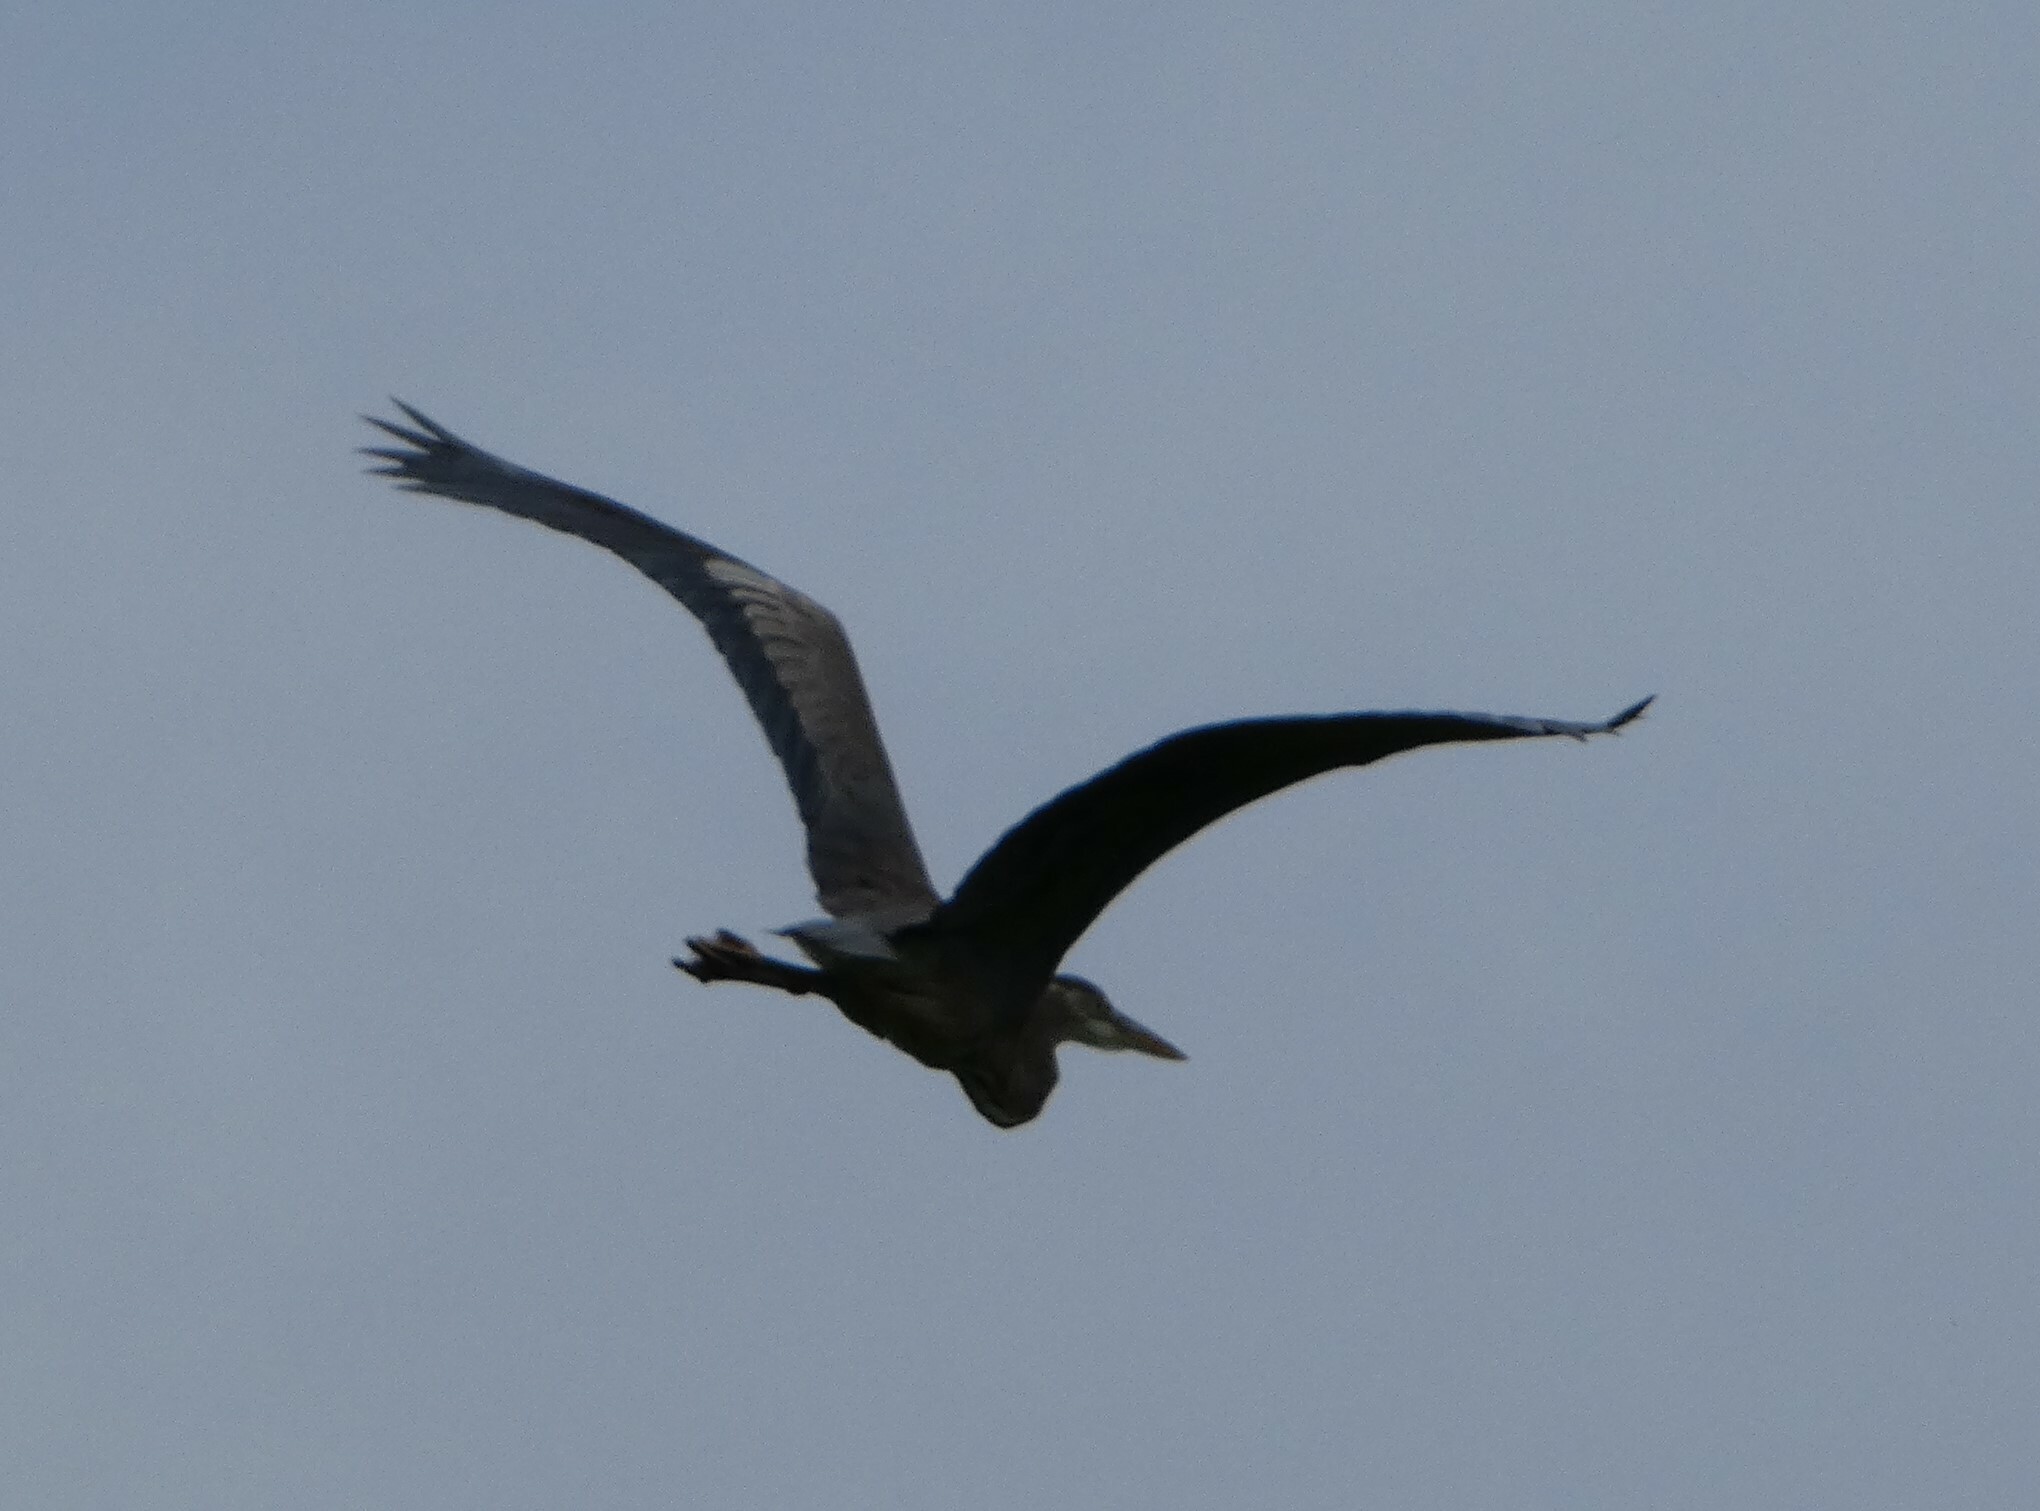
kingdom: Animalia
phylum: Chordata
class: Aves
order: Pelecaniformes
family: Ardeidae
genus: Ardea
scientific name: Ardea herodias
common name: Great blue heron
